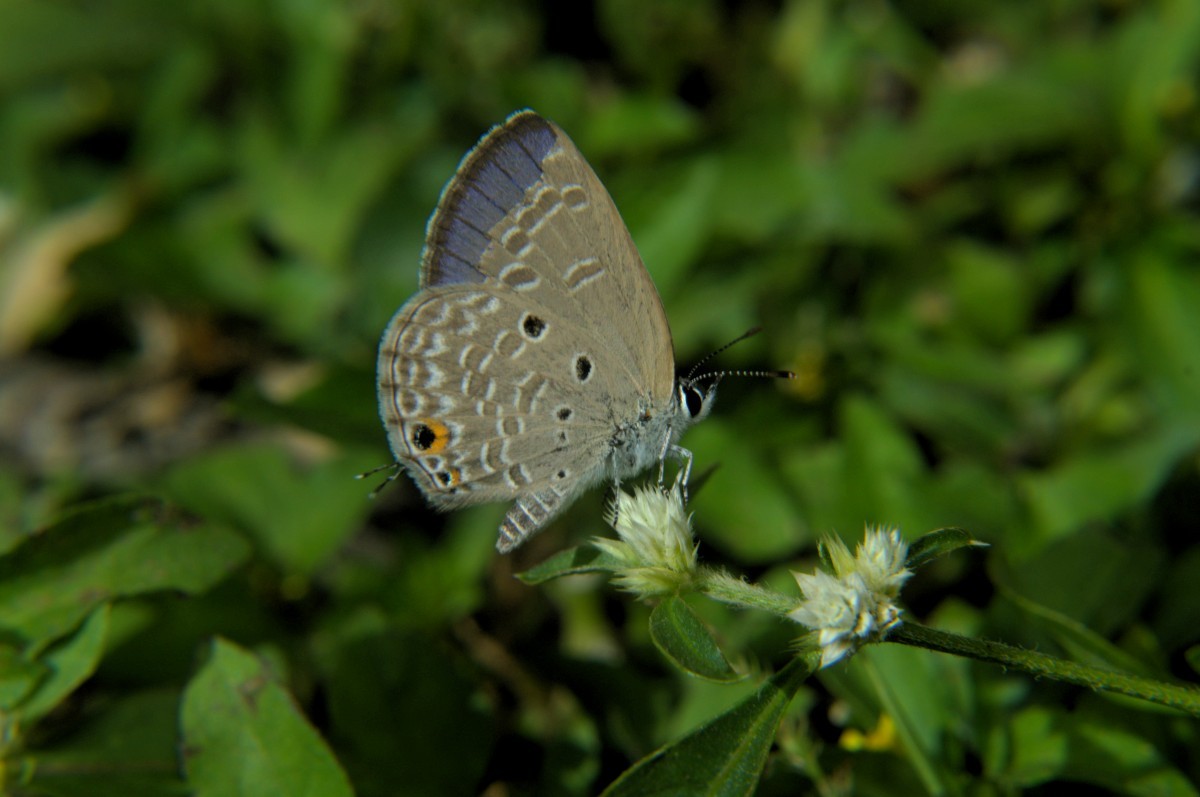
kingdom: Animalia
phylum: Arthropoda
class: Insecta
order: Lepidoptera
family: Lycaenidae
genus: Luthrodes
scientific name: Luthrodes pandava
